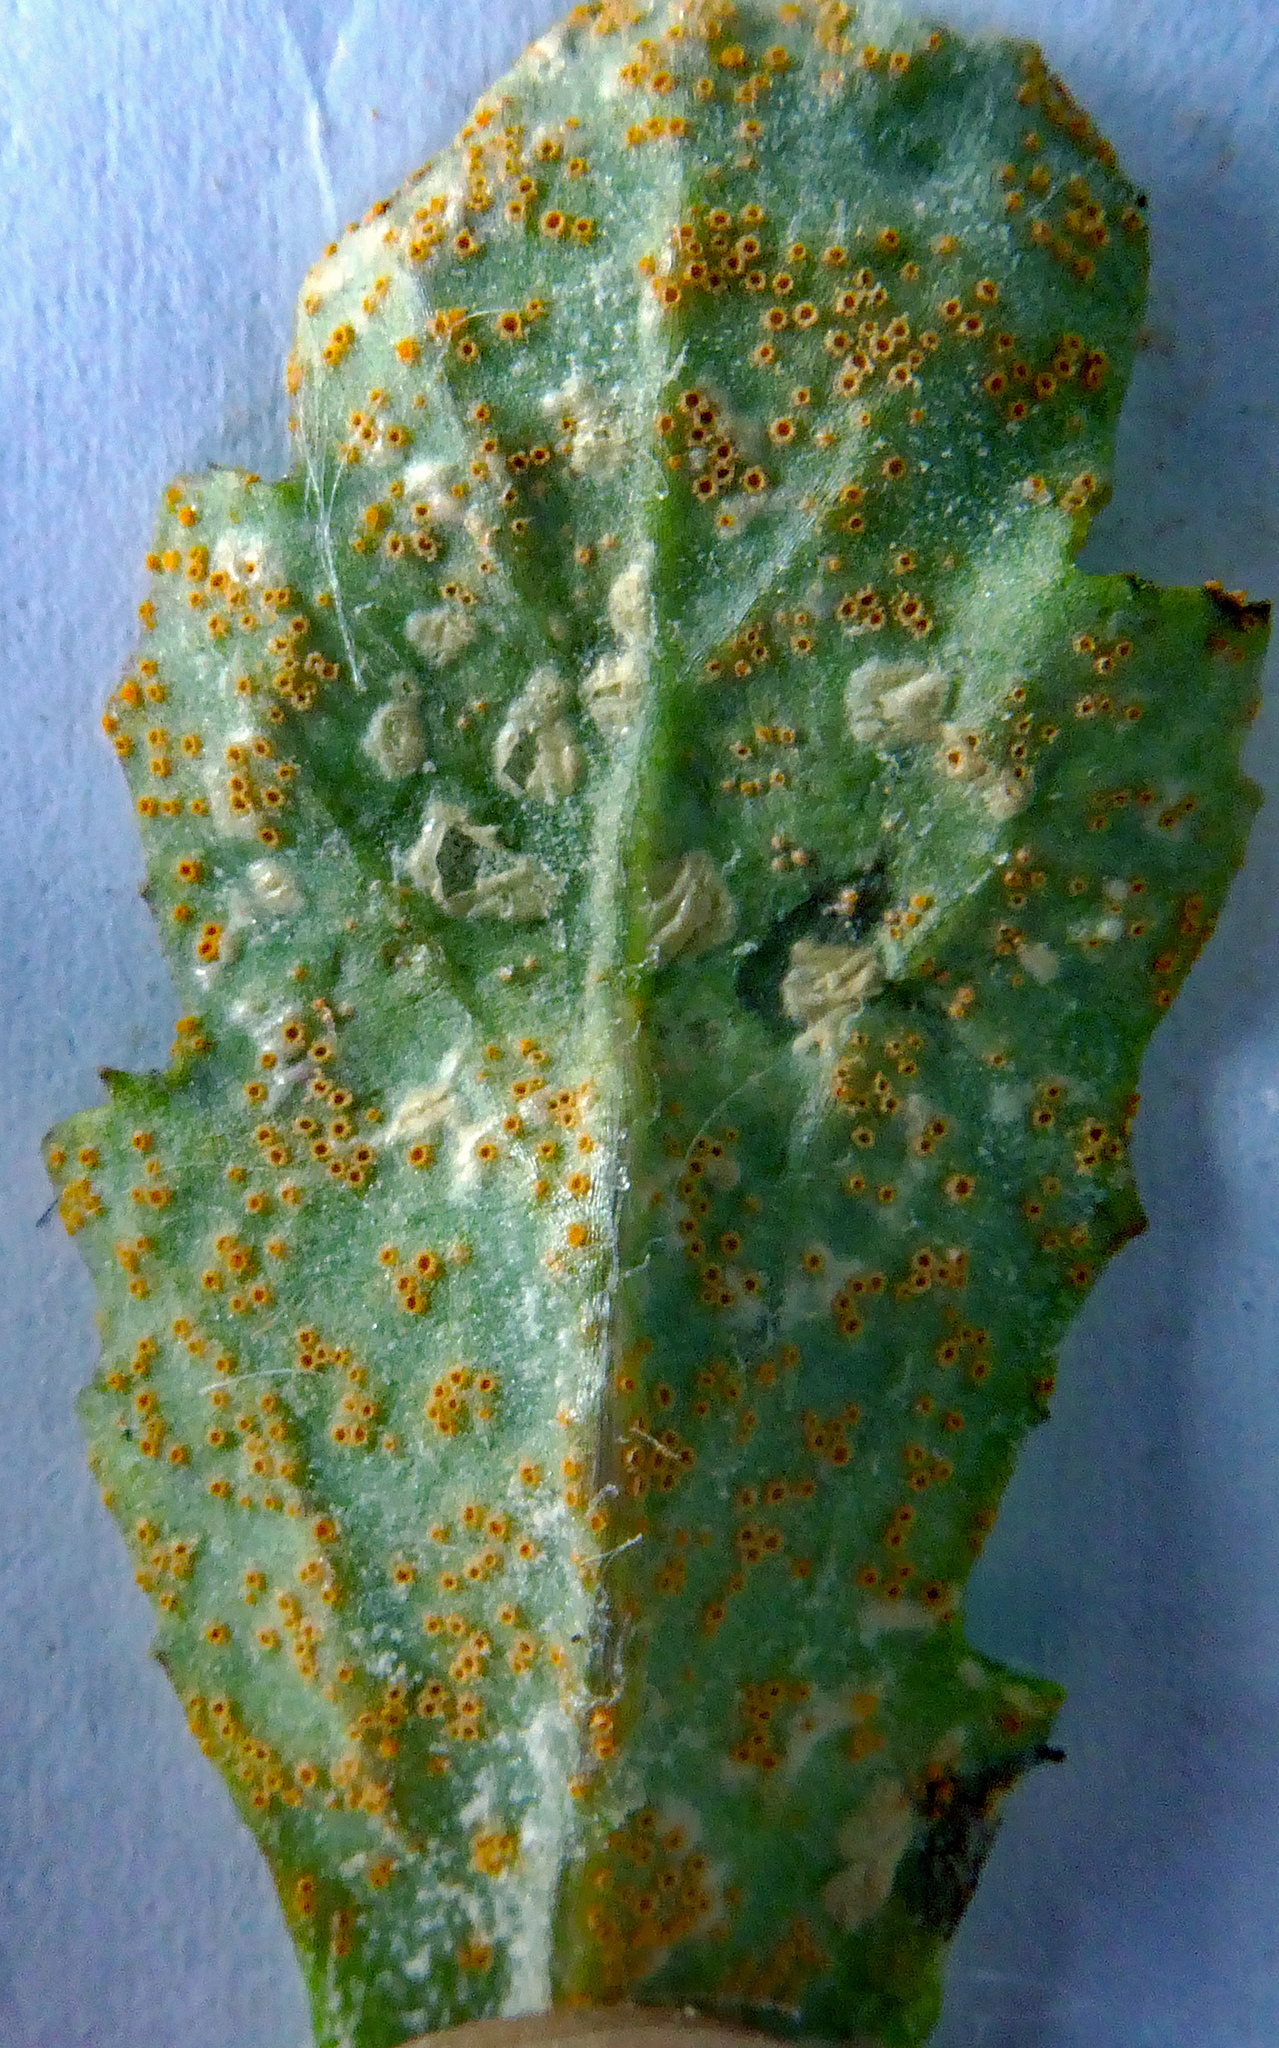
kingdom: Fungi
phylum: Basidiomycota
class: Pucciniomycetes
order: Pucciniales
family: Pucciniaceae
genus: Puccinia
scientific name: Puccinia lagenophorae
